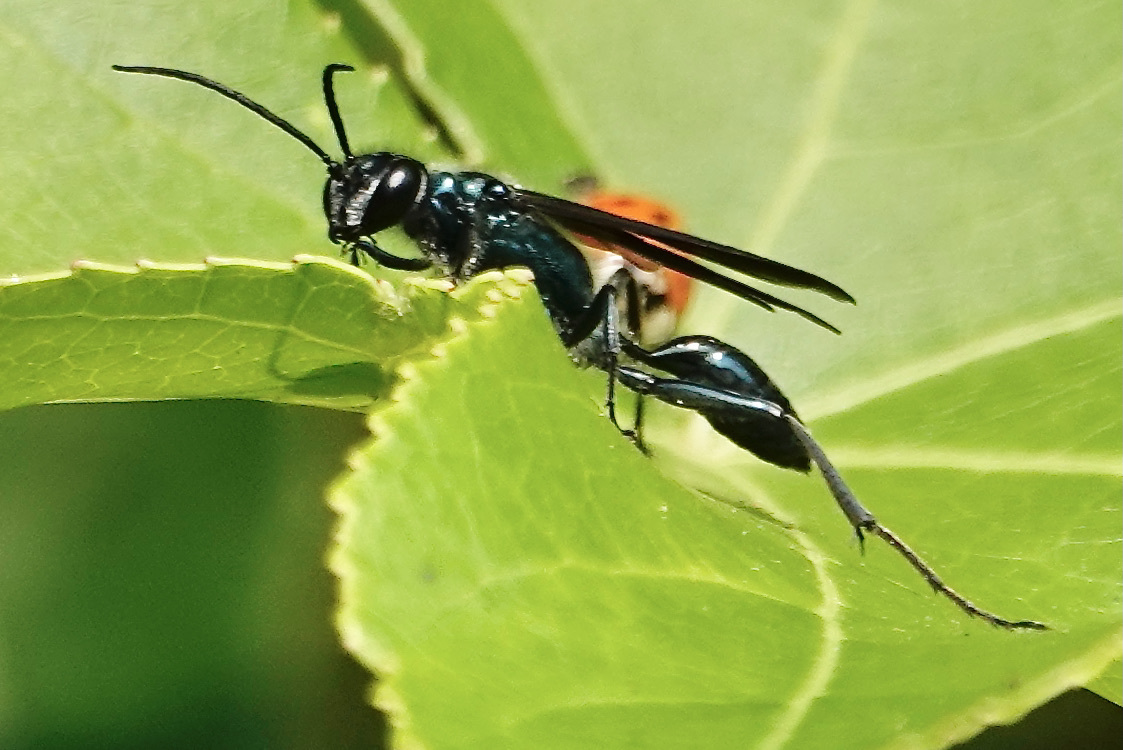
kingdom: Animalia
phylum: Arthropoda
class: Insecta
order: Hymenoptera
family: Sphecidae
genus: Chalybion
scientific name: Chalybion zimmermanni
